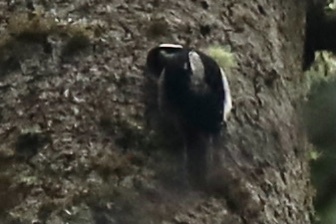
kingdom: Animalia
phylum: Chordata
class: Aves
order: Piciformes
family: Picidae
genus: Leuconotopicus
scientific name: Leuconotopicus villosus
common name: Hairy woodpecker
